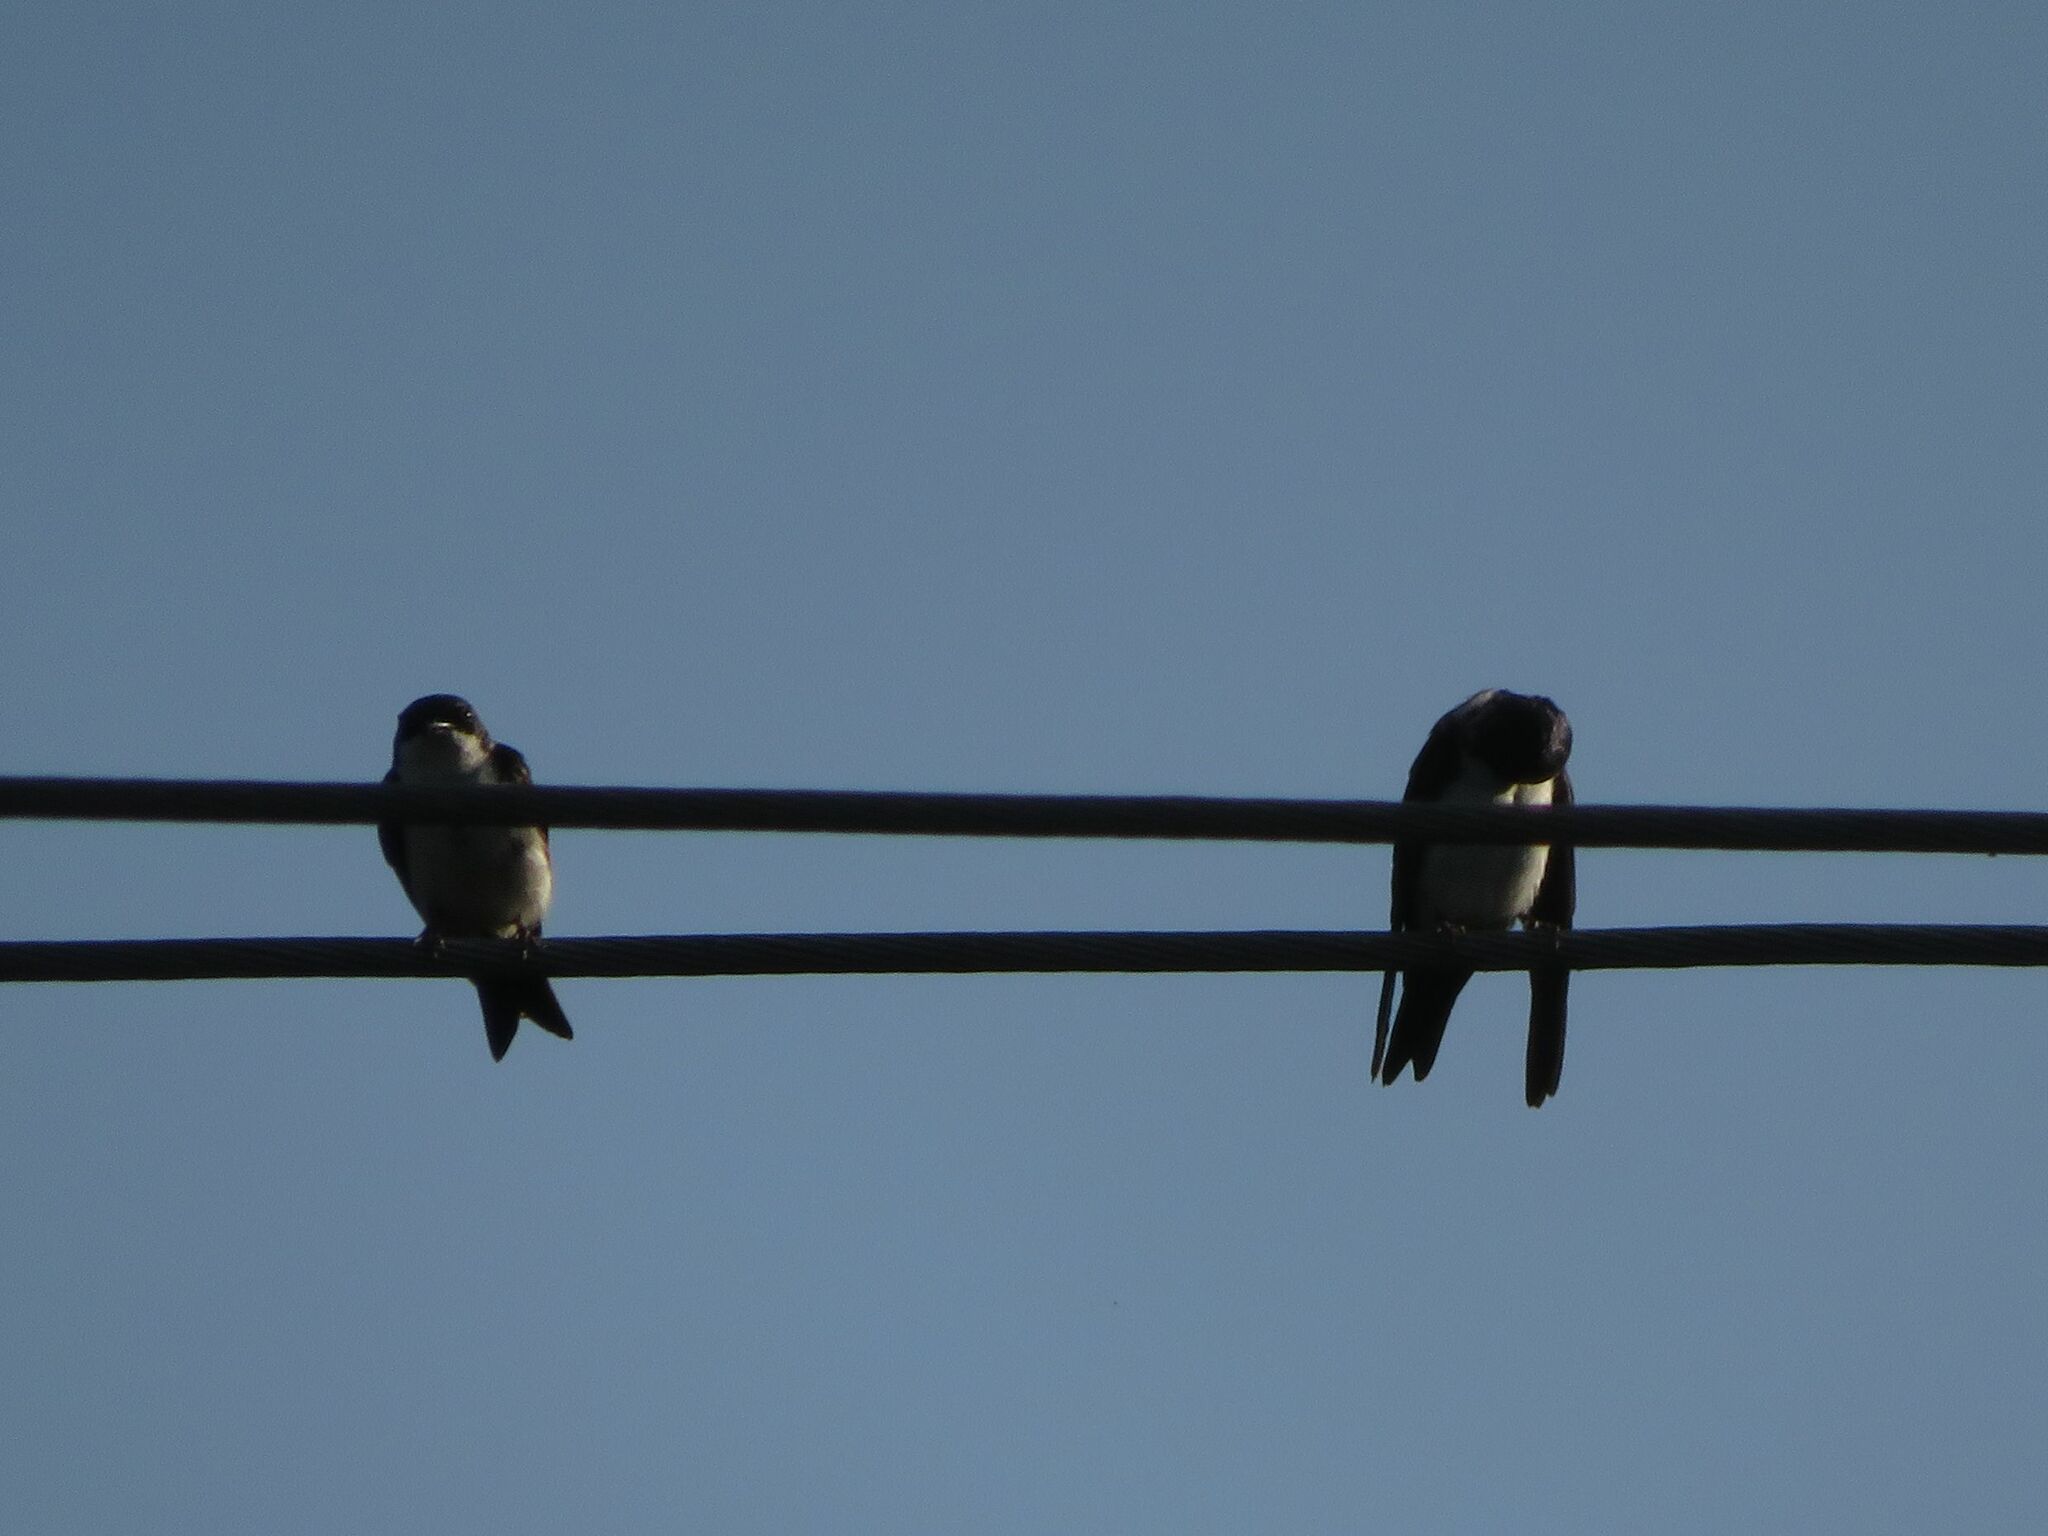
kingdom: Animalia
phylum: Chordata
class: Aves
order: Passeriformes
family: Hirundinidae
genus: Notiochelidon
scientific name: Notiochelidon cyanoleuca
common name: Blue-and-white swallow
